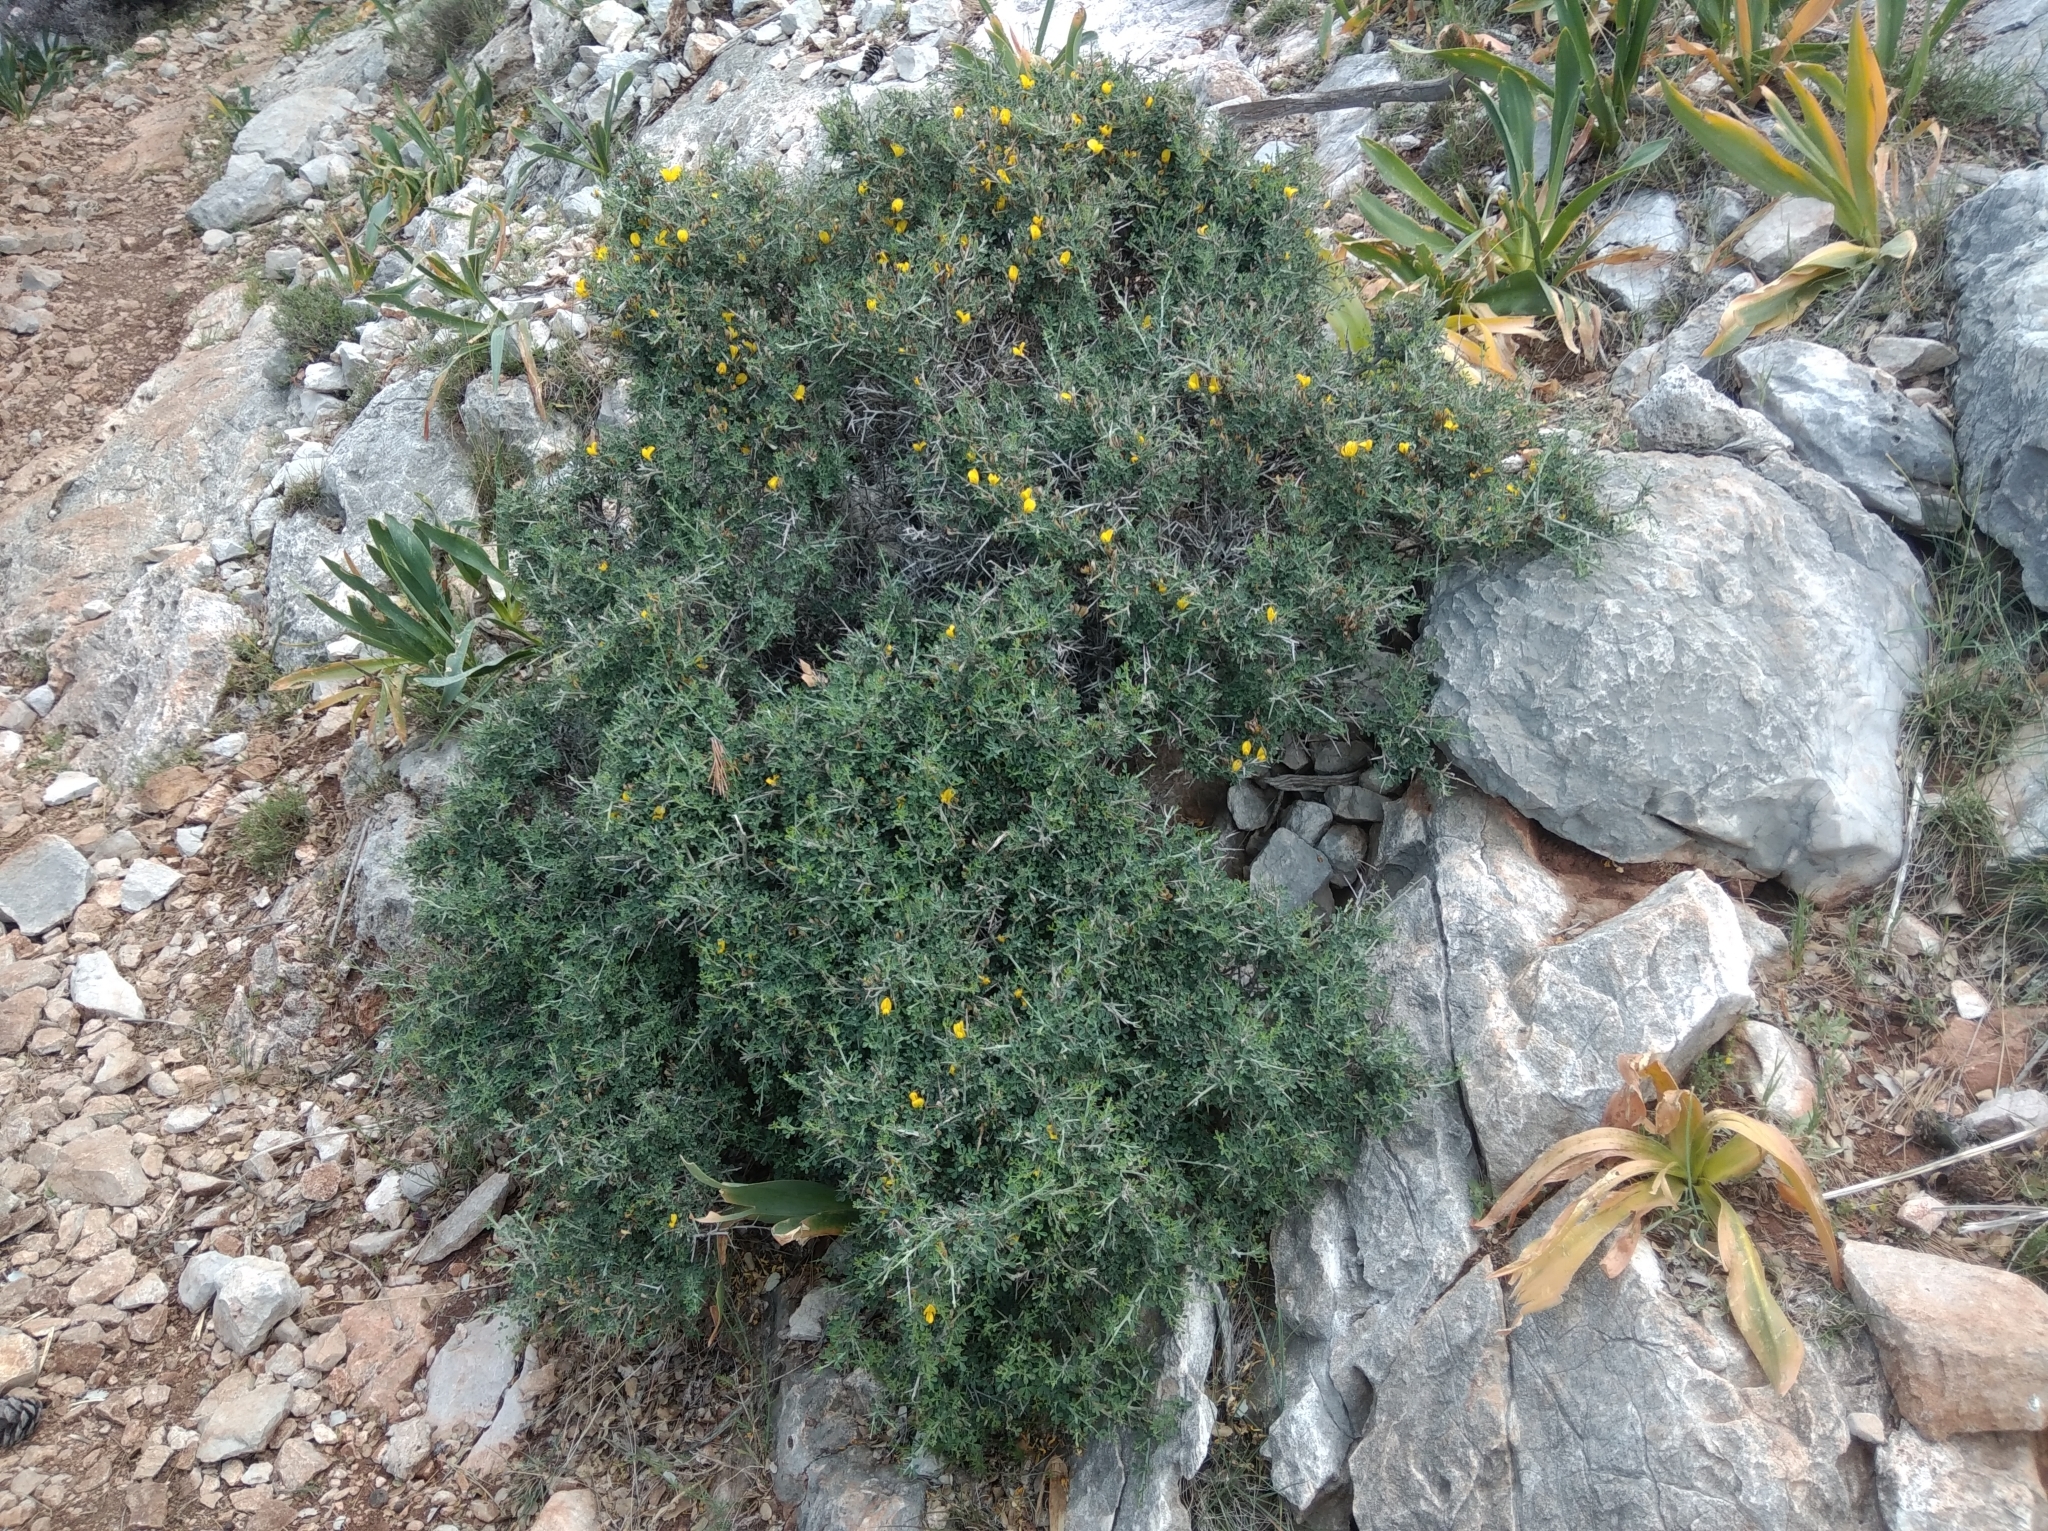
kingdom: Plantae
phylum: Tracheophyta
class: Magnoliopsida
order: Fabales
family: Fabaceae
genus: Calicotome
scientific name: Calicotome villosa
